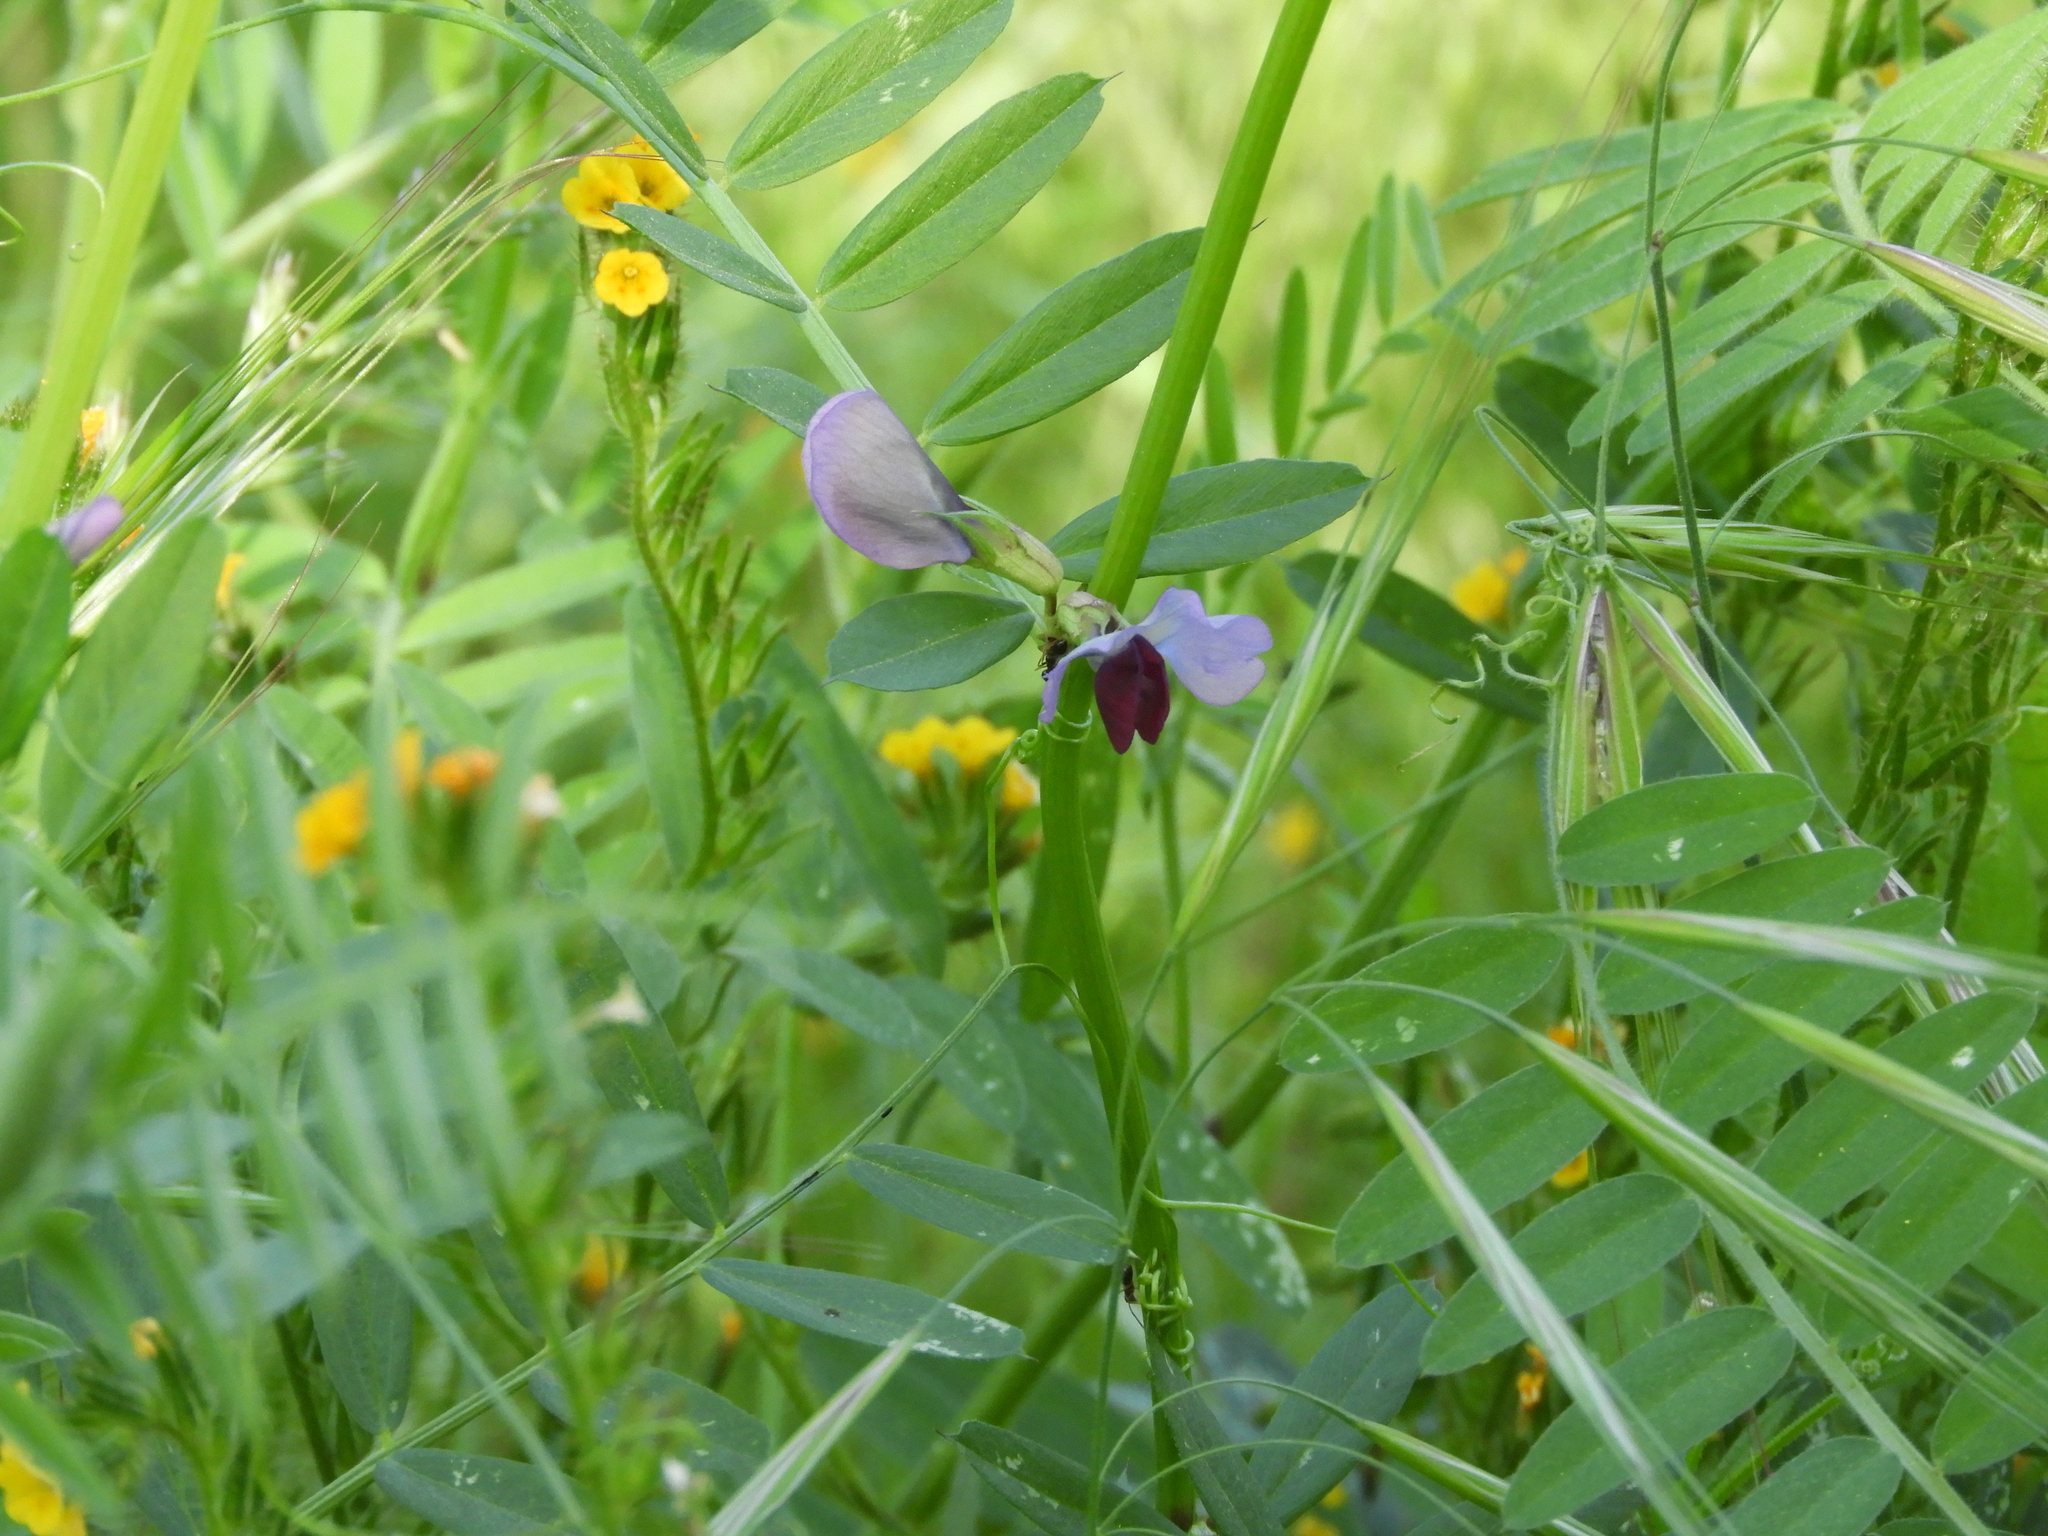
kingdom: Plantae
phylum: Tracheophyta
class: Magnoliopsida
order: Fabales
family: Fabaceae
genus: Vicia
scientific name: Vicia sativa
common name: Garden vetch
